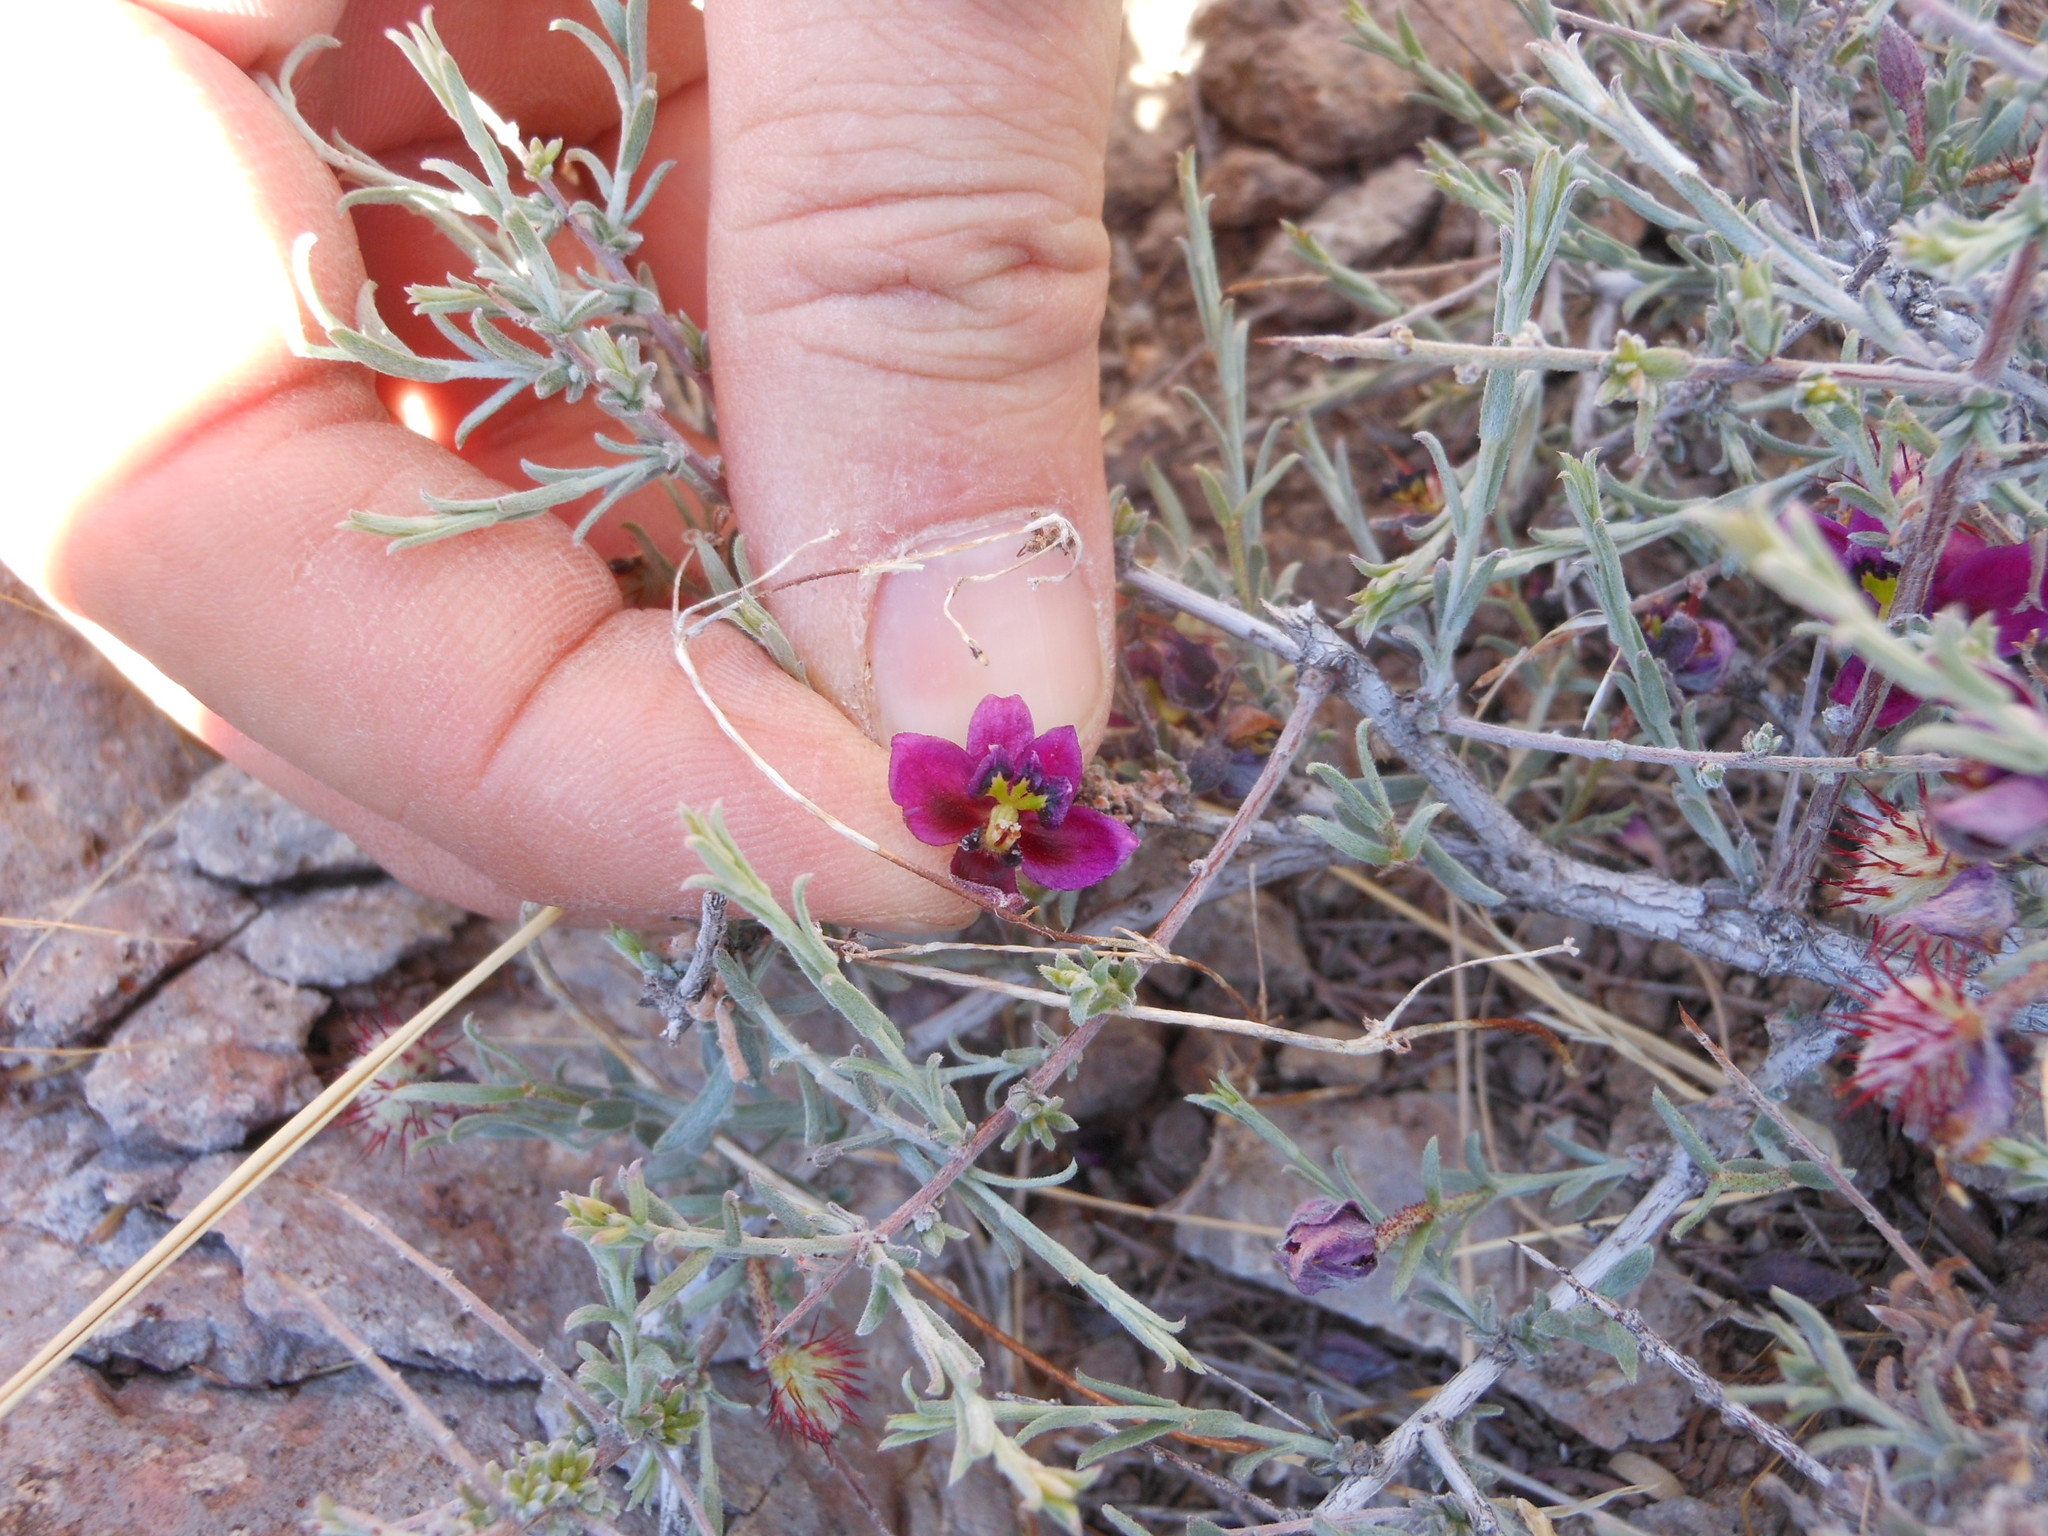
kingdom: Plantae
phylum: Tracheophyta
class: Magnoliopsida
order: Zygophyllales
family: Krameriaceae
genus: Krameria
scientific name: Krameria erecta
